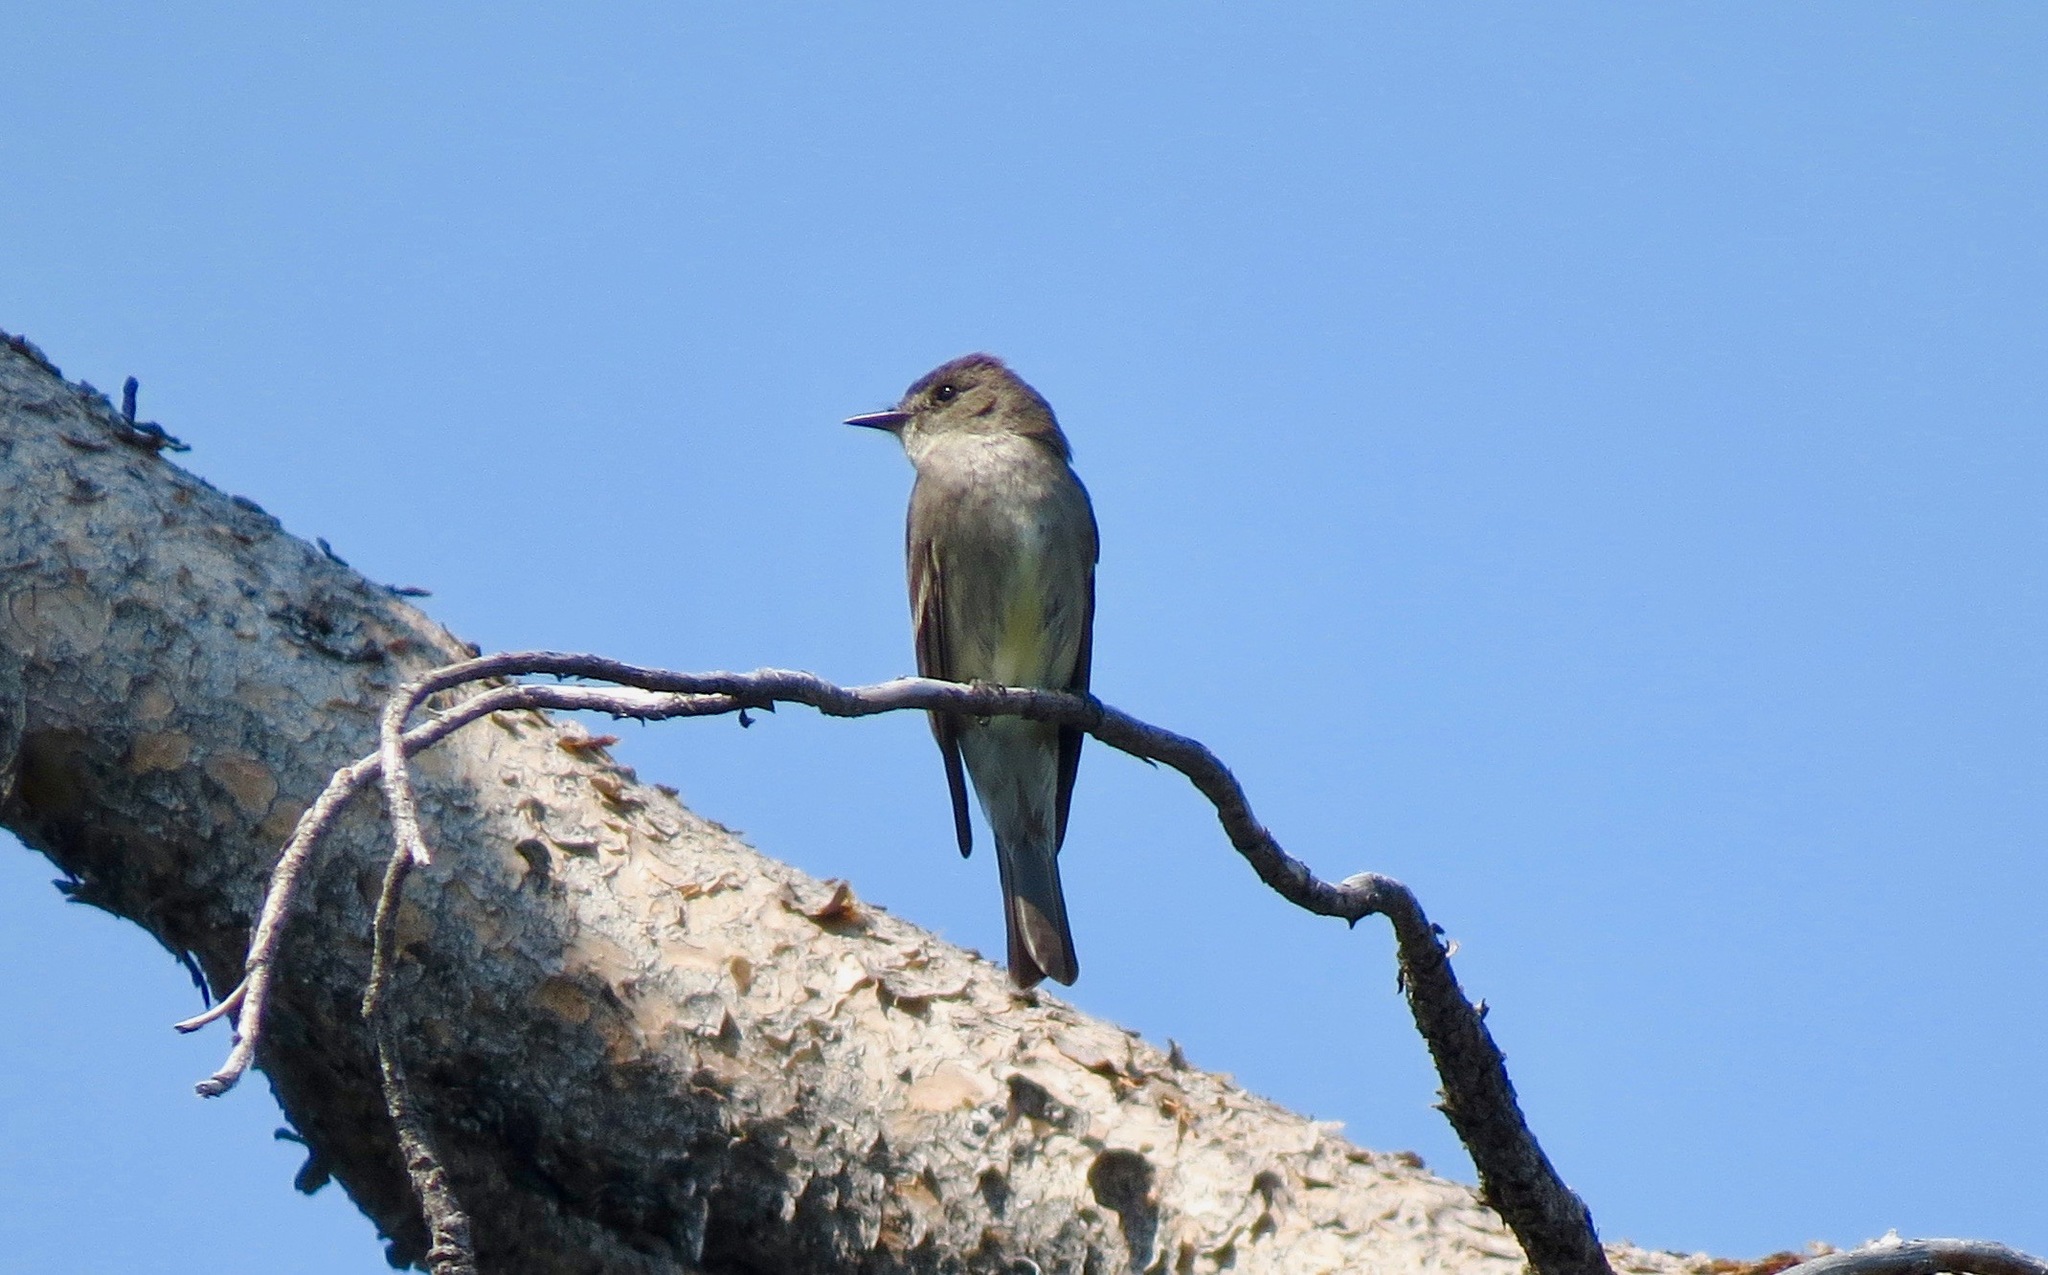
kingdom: Animalia
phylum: Chordata
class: Aves
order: Passeriformes
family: Tyrannidae
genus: Contopus
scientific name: Contopus sordidulus
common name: Western wood-pewee
